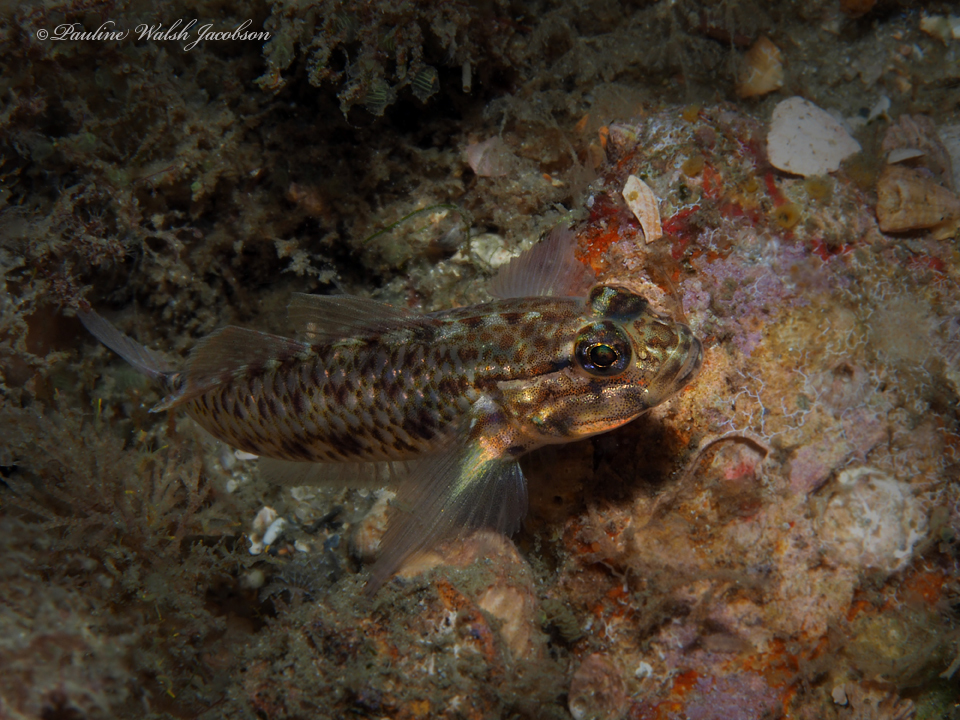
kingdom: Animalia
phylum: Chordata
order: Perciformes
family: Gobiidae
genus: Coryphopterus
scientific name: Coryphopterus dicrus
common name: Colon goby
